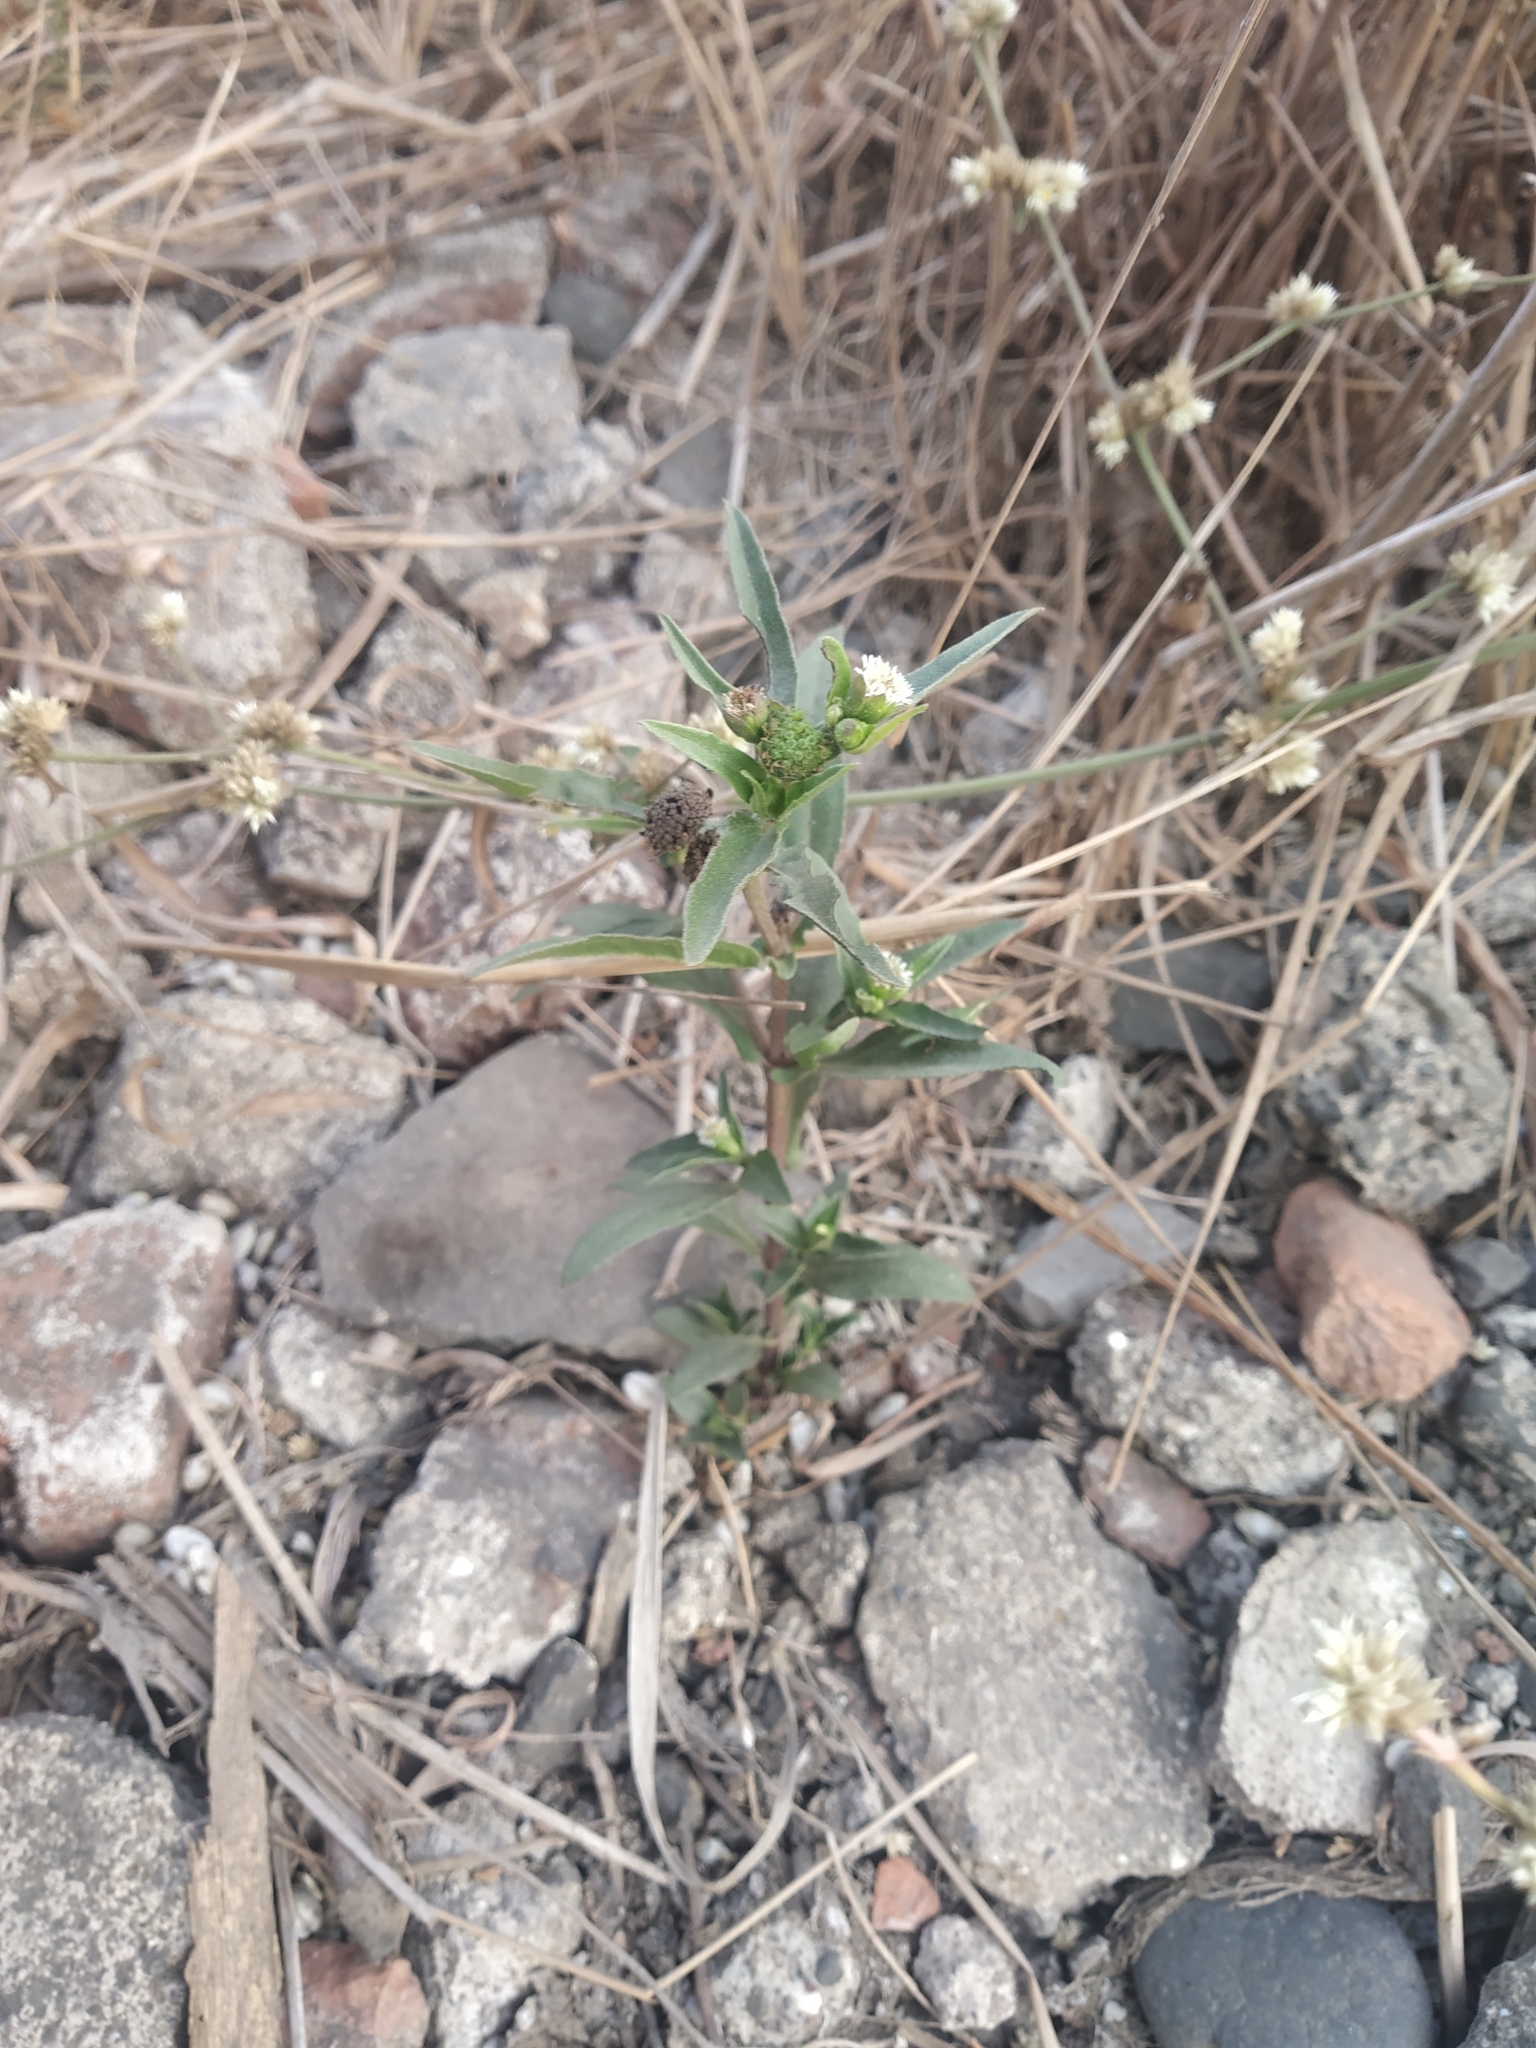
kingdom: Plantae
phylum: Tracheophyta
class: Magnoliopsida
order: Asterales
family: Asteraceae
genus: Eclipta
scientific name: Eclipta prostrata
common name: False daisy
